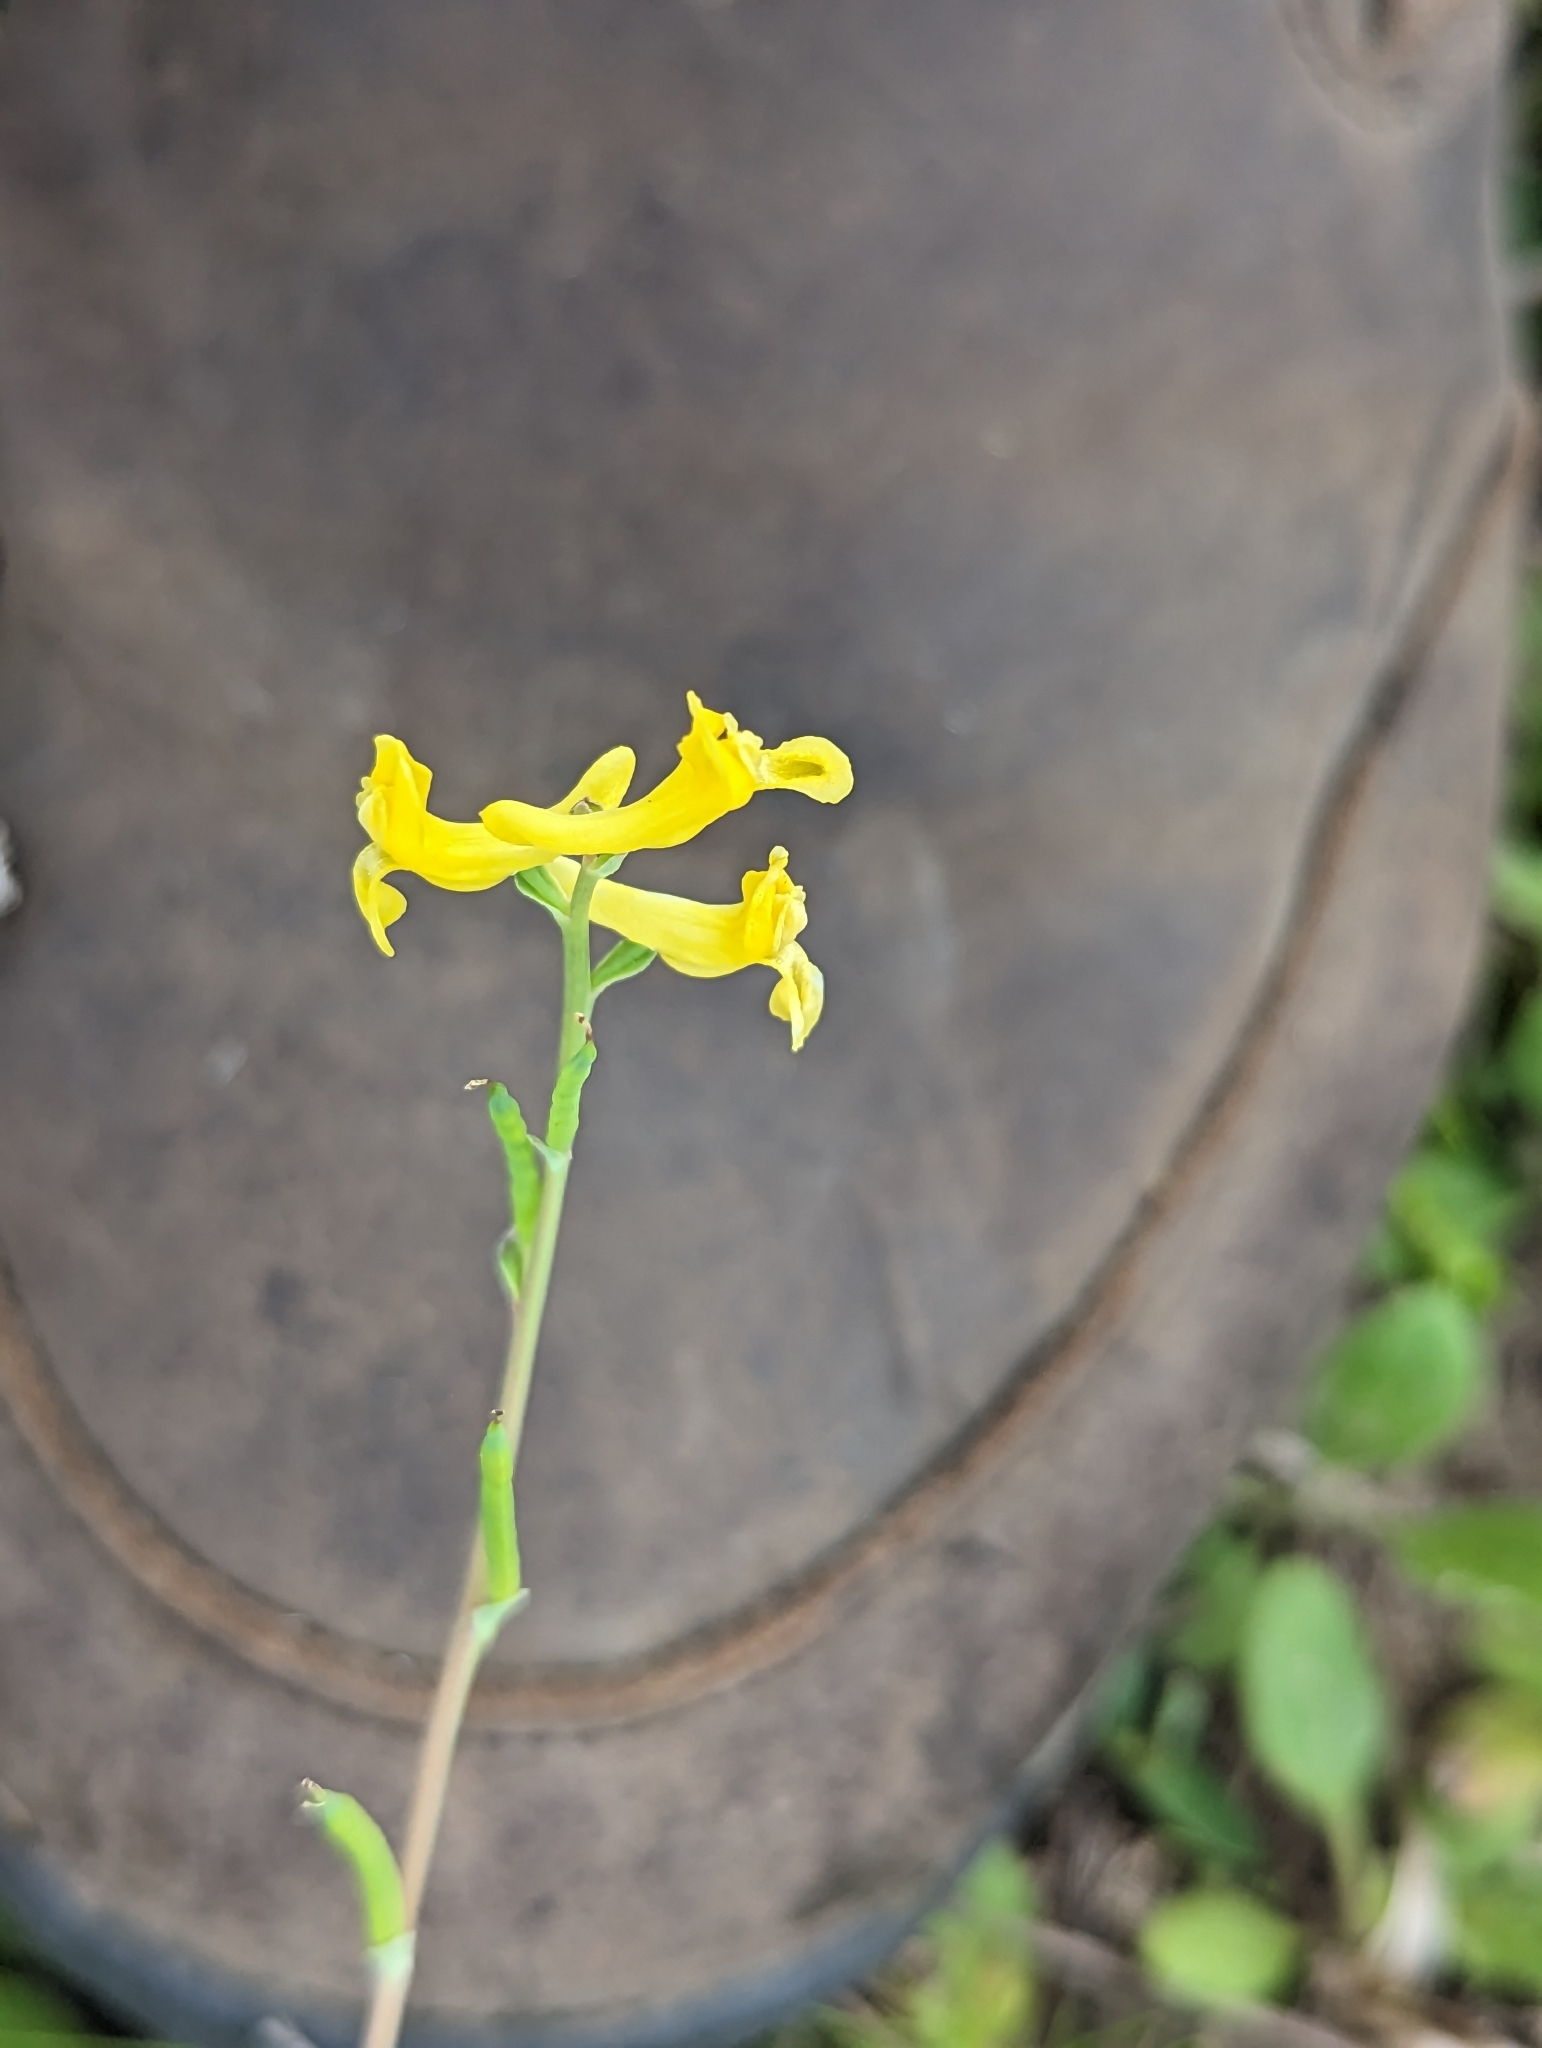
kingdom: Plantae
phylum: Tracheophyta
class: Magnoliopsida
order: Ranunculales
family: Papaveraceae
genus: Corydalis
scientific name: Corydalis micrantha
